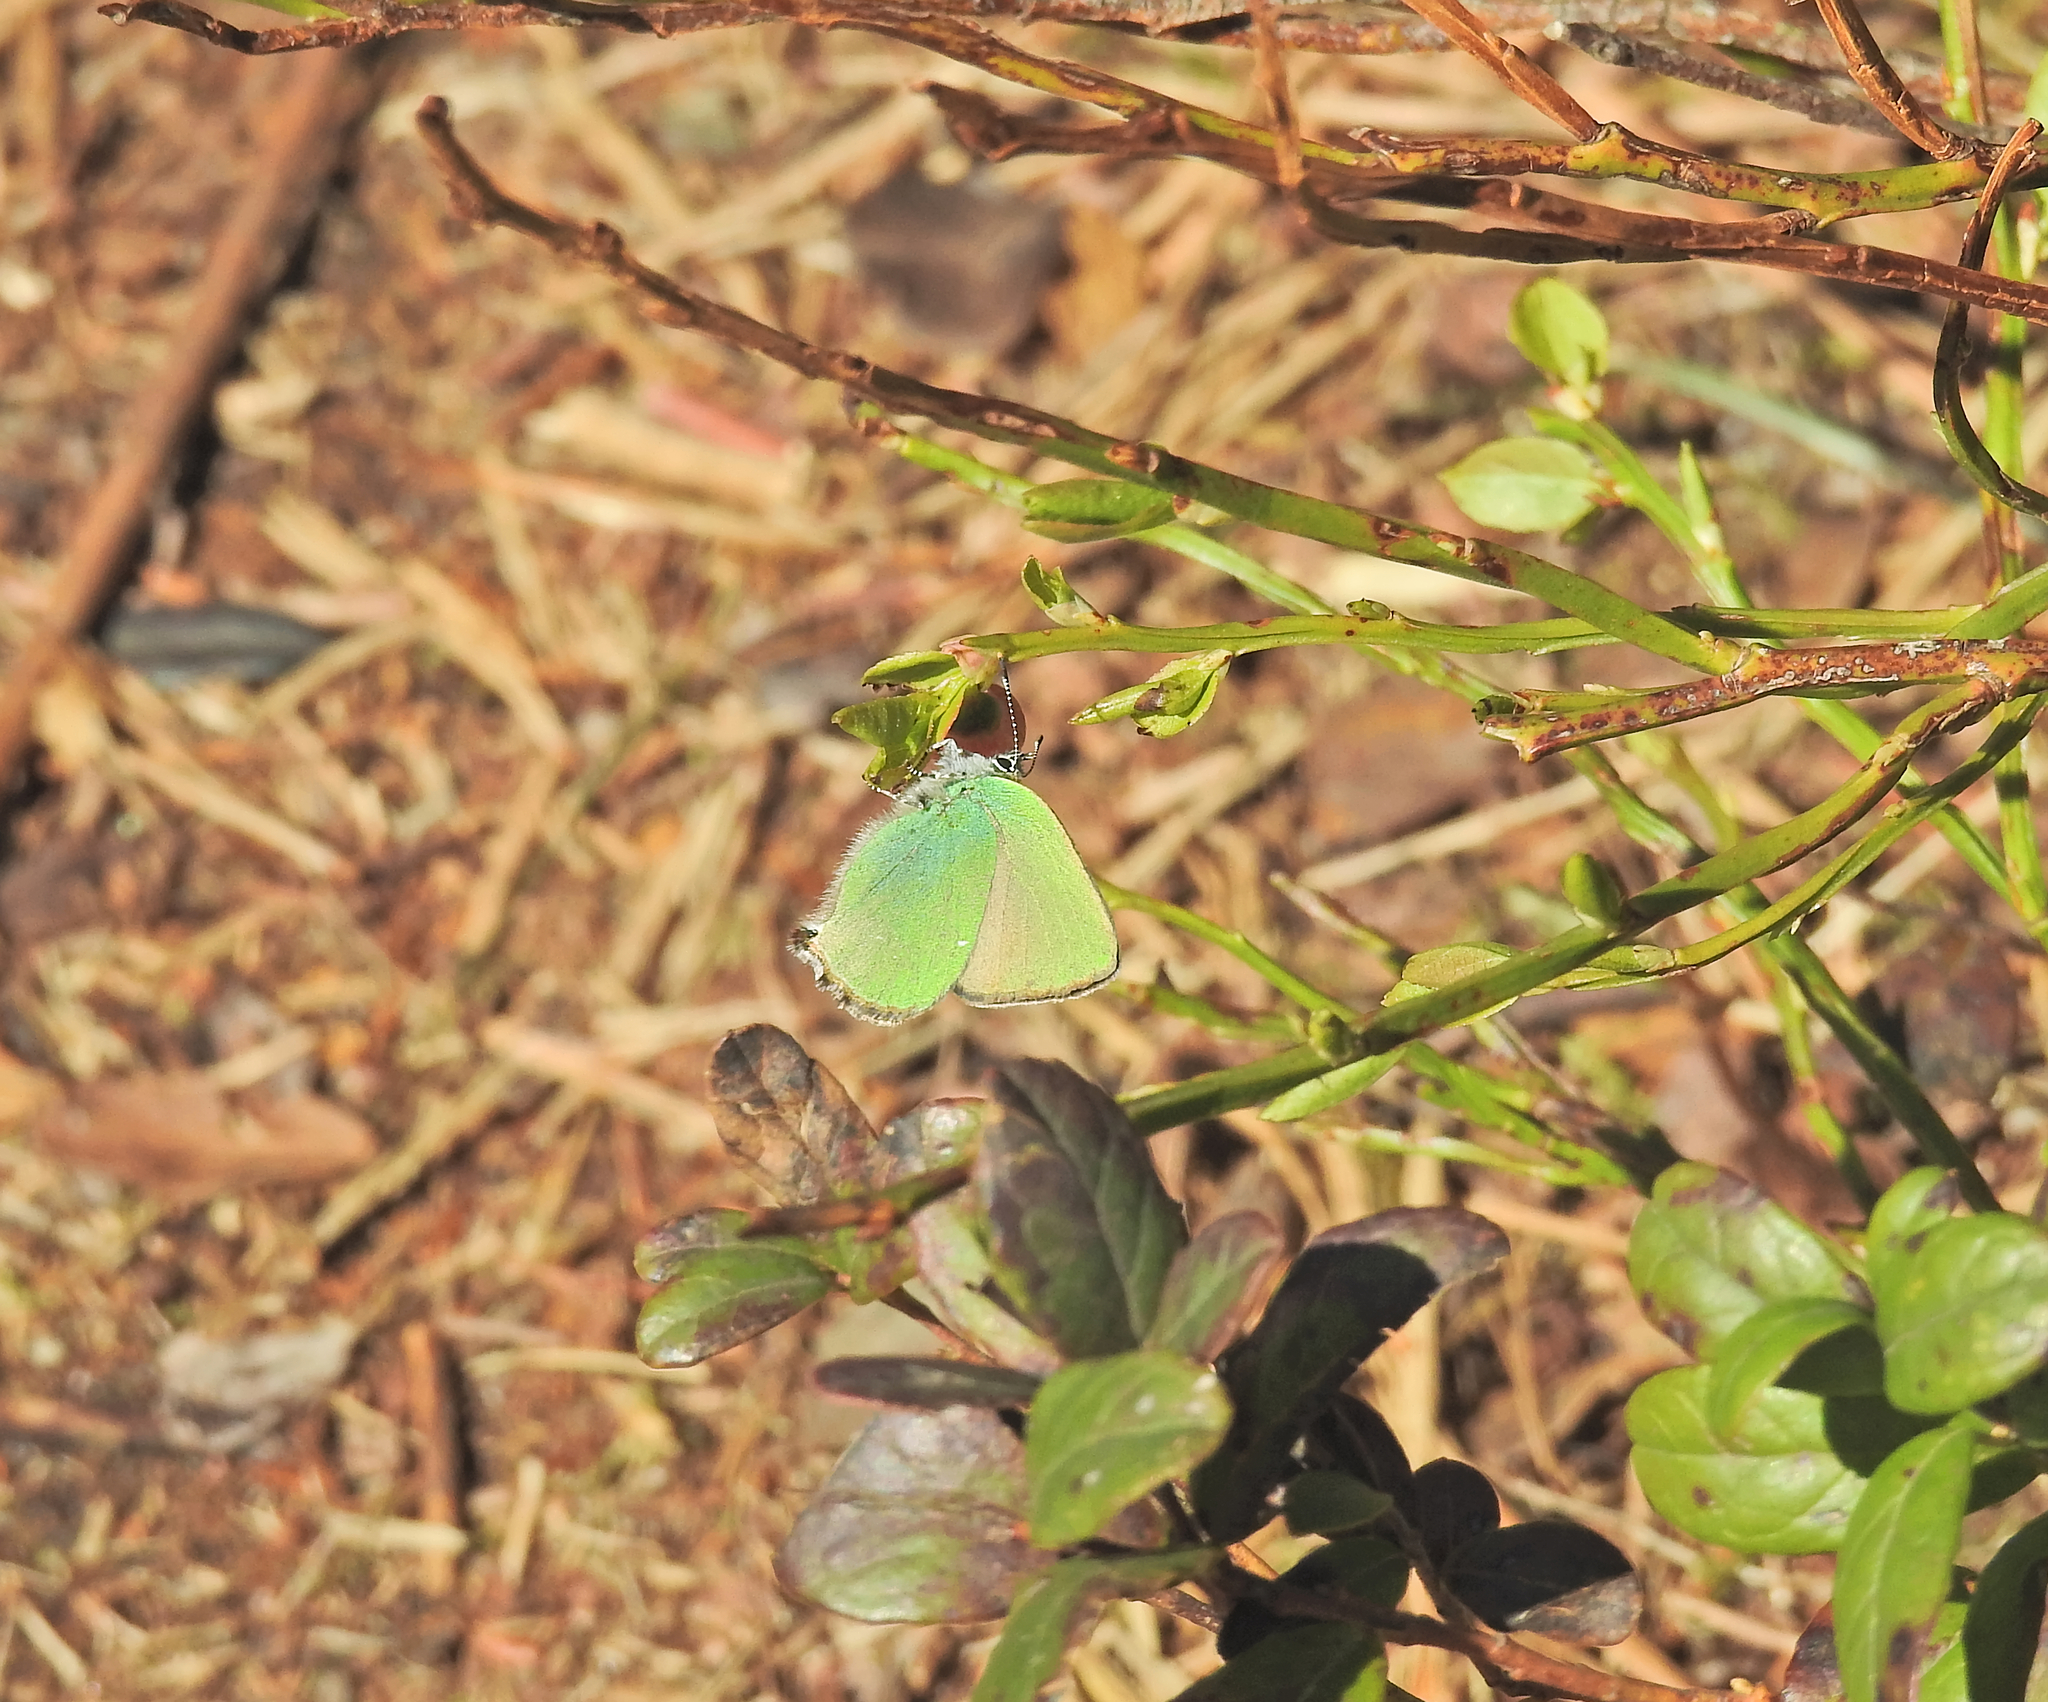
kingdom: Animalia
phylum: Arthropoda
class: Insecta
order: Lepidoptera
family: Lycaenidae
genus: Callophrys
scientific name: Callophrys rubi
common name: Green hairstreak
